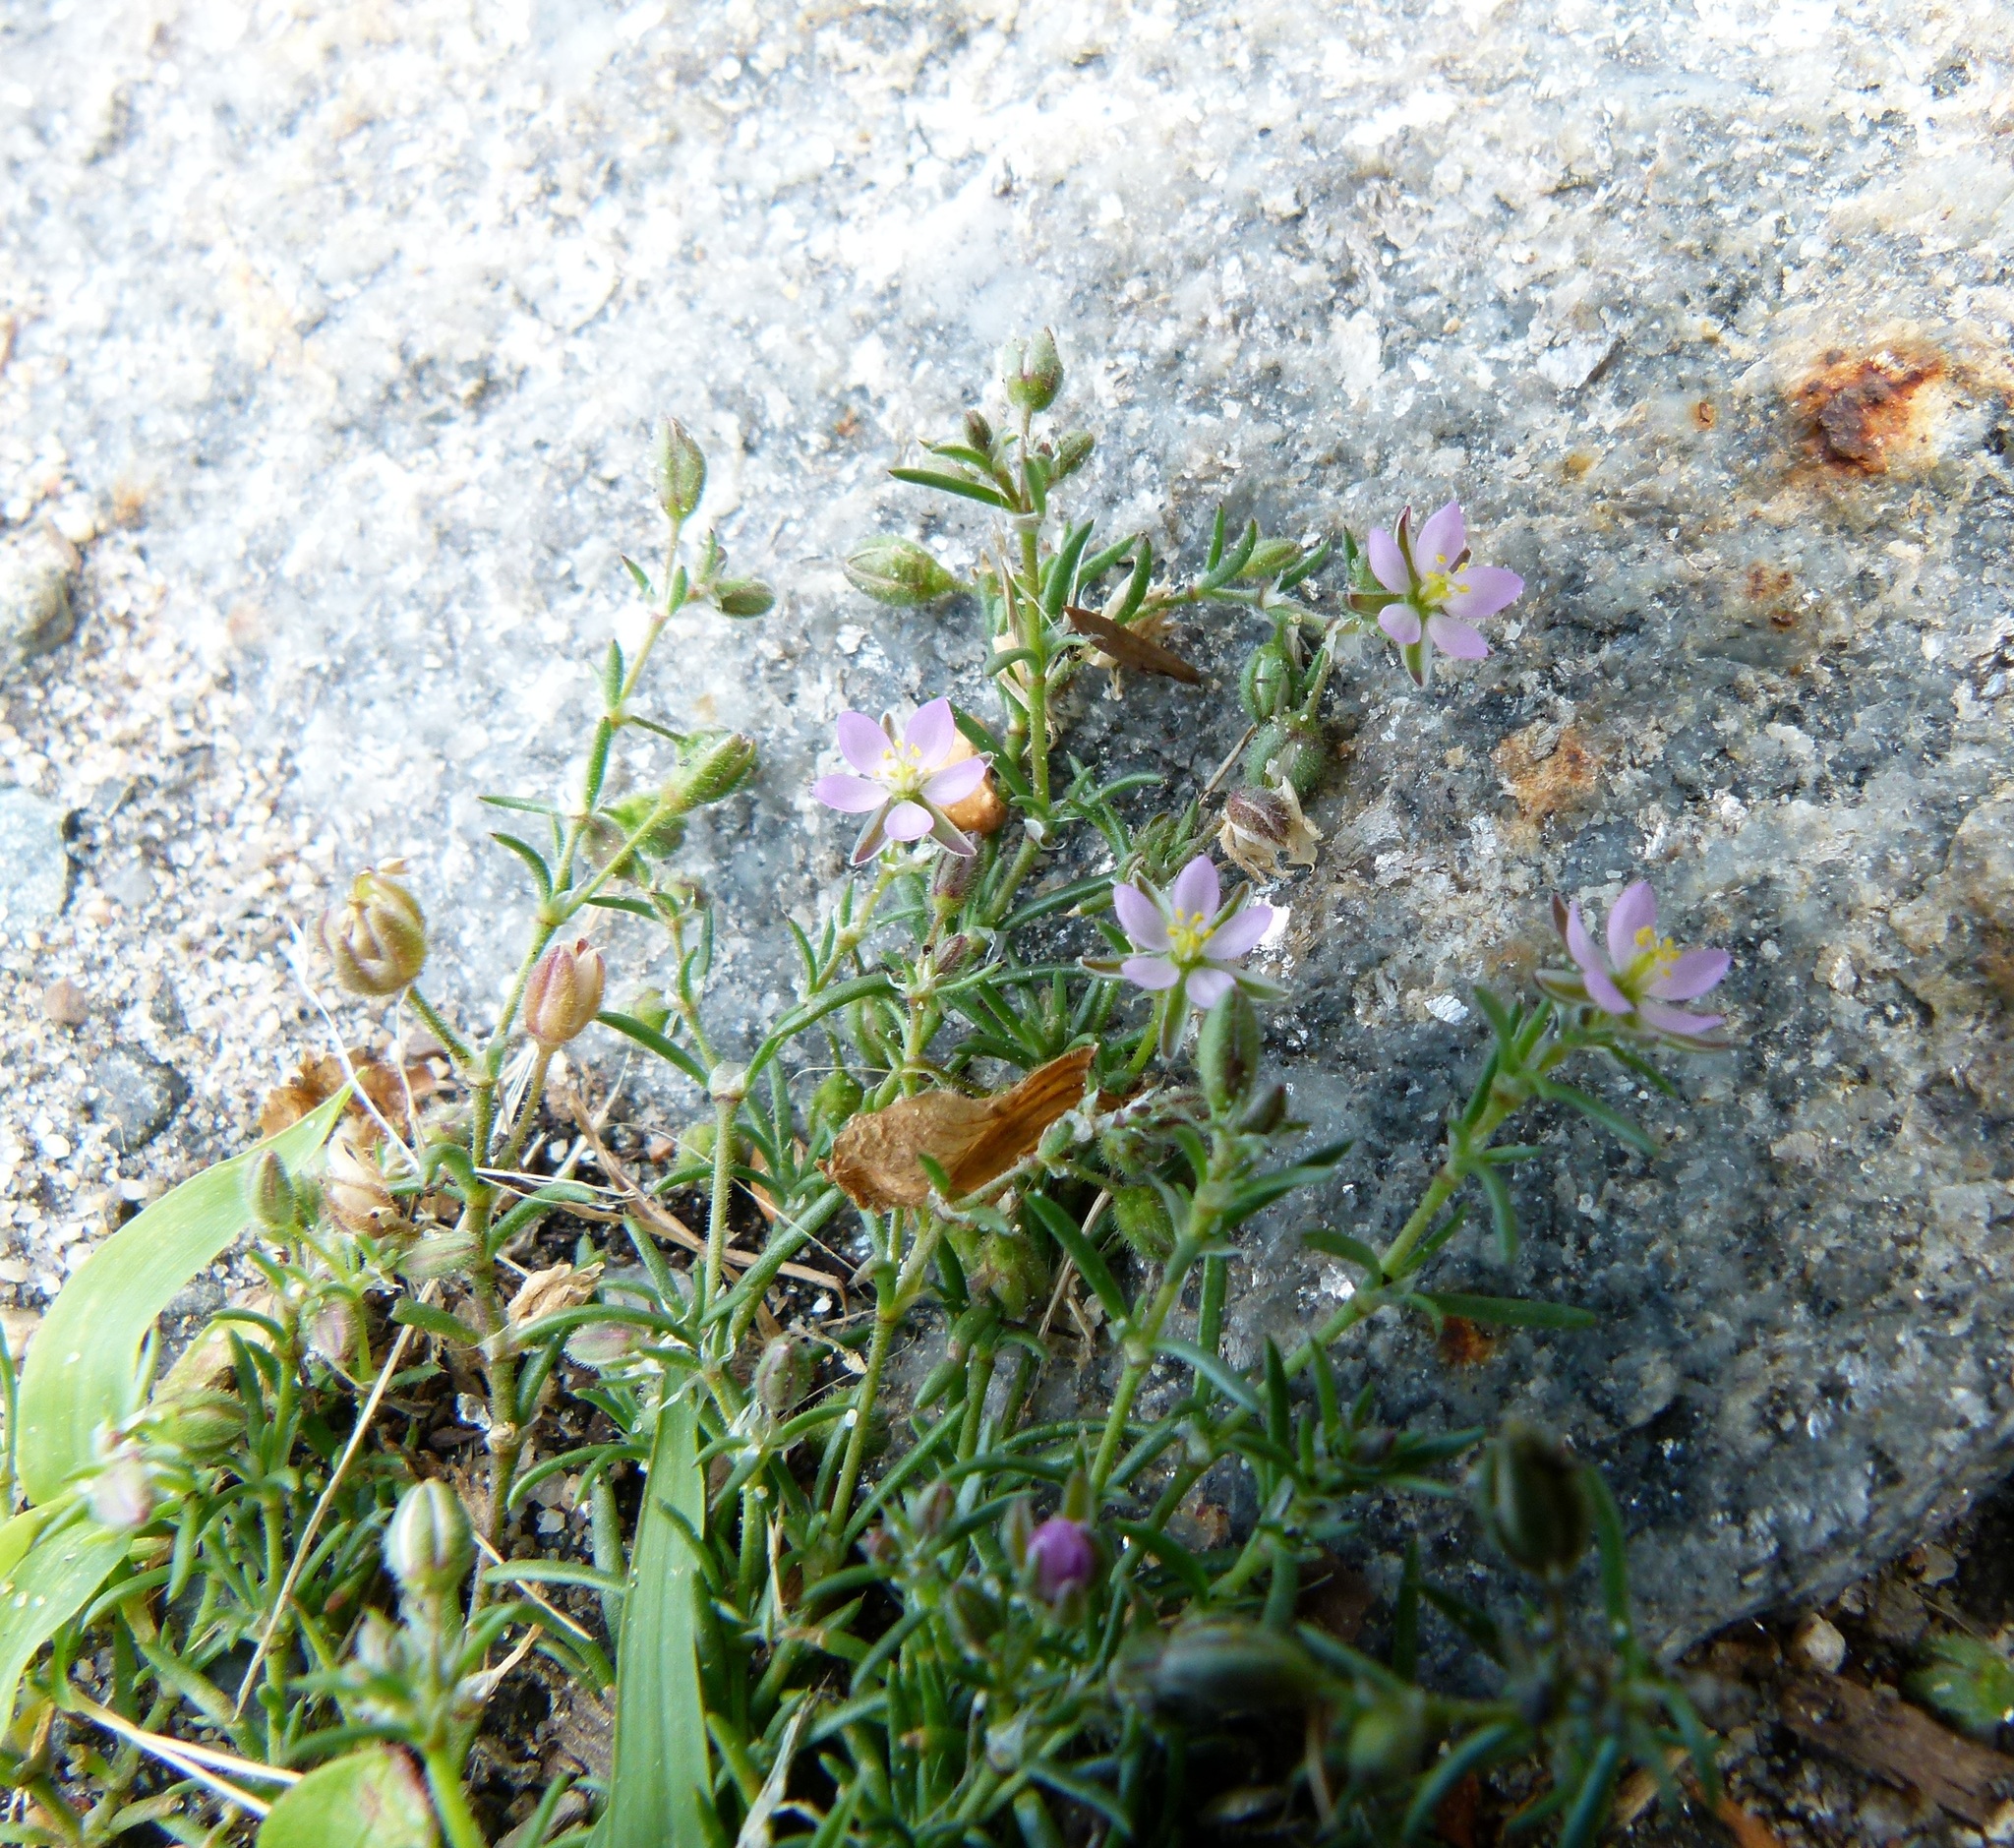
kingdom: Plantae
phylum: Tracheophyta
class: Magnoliopsida
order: Caryophyllales
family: Caryophyllaceae
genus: Spergularia
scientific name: Spergularia marina
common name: Lesser sea-spurrey
